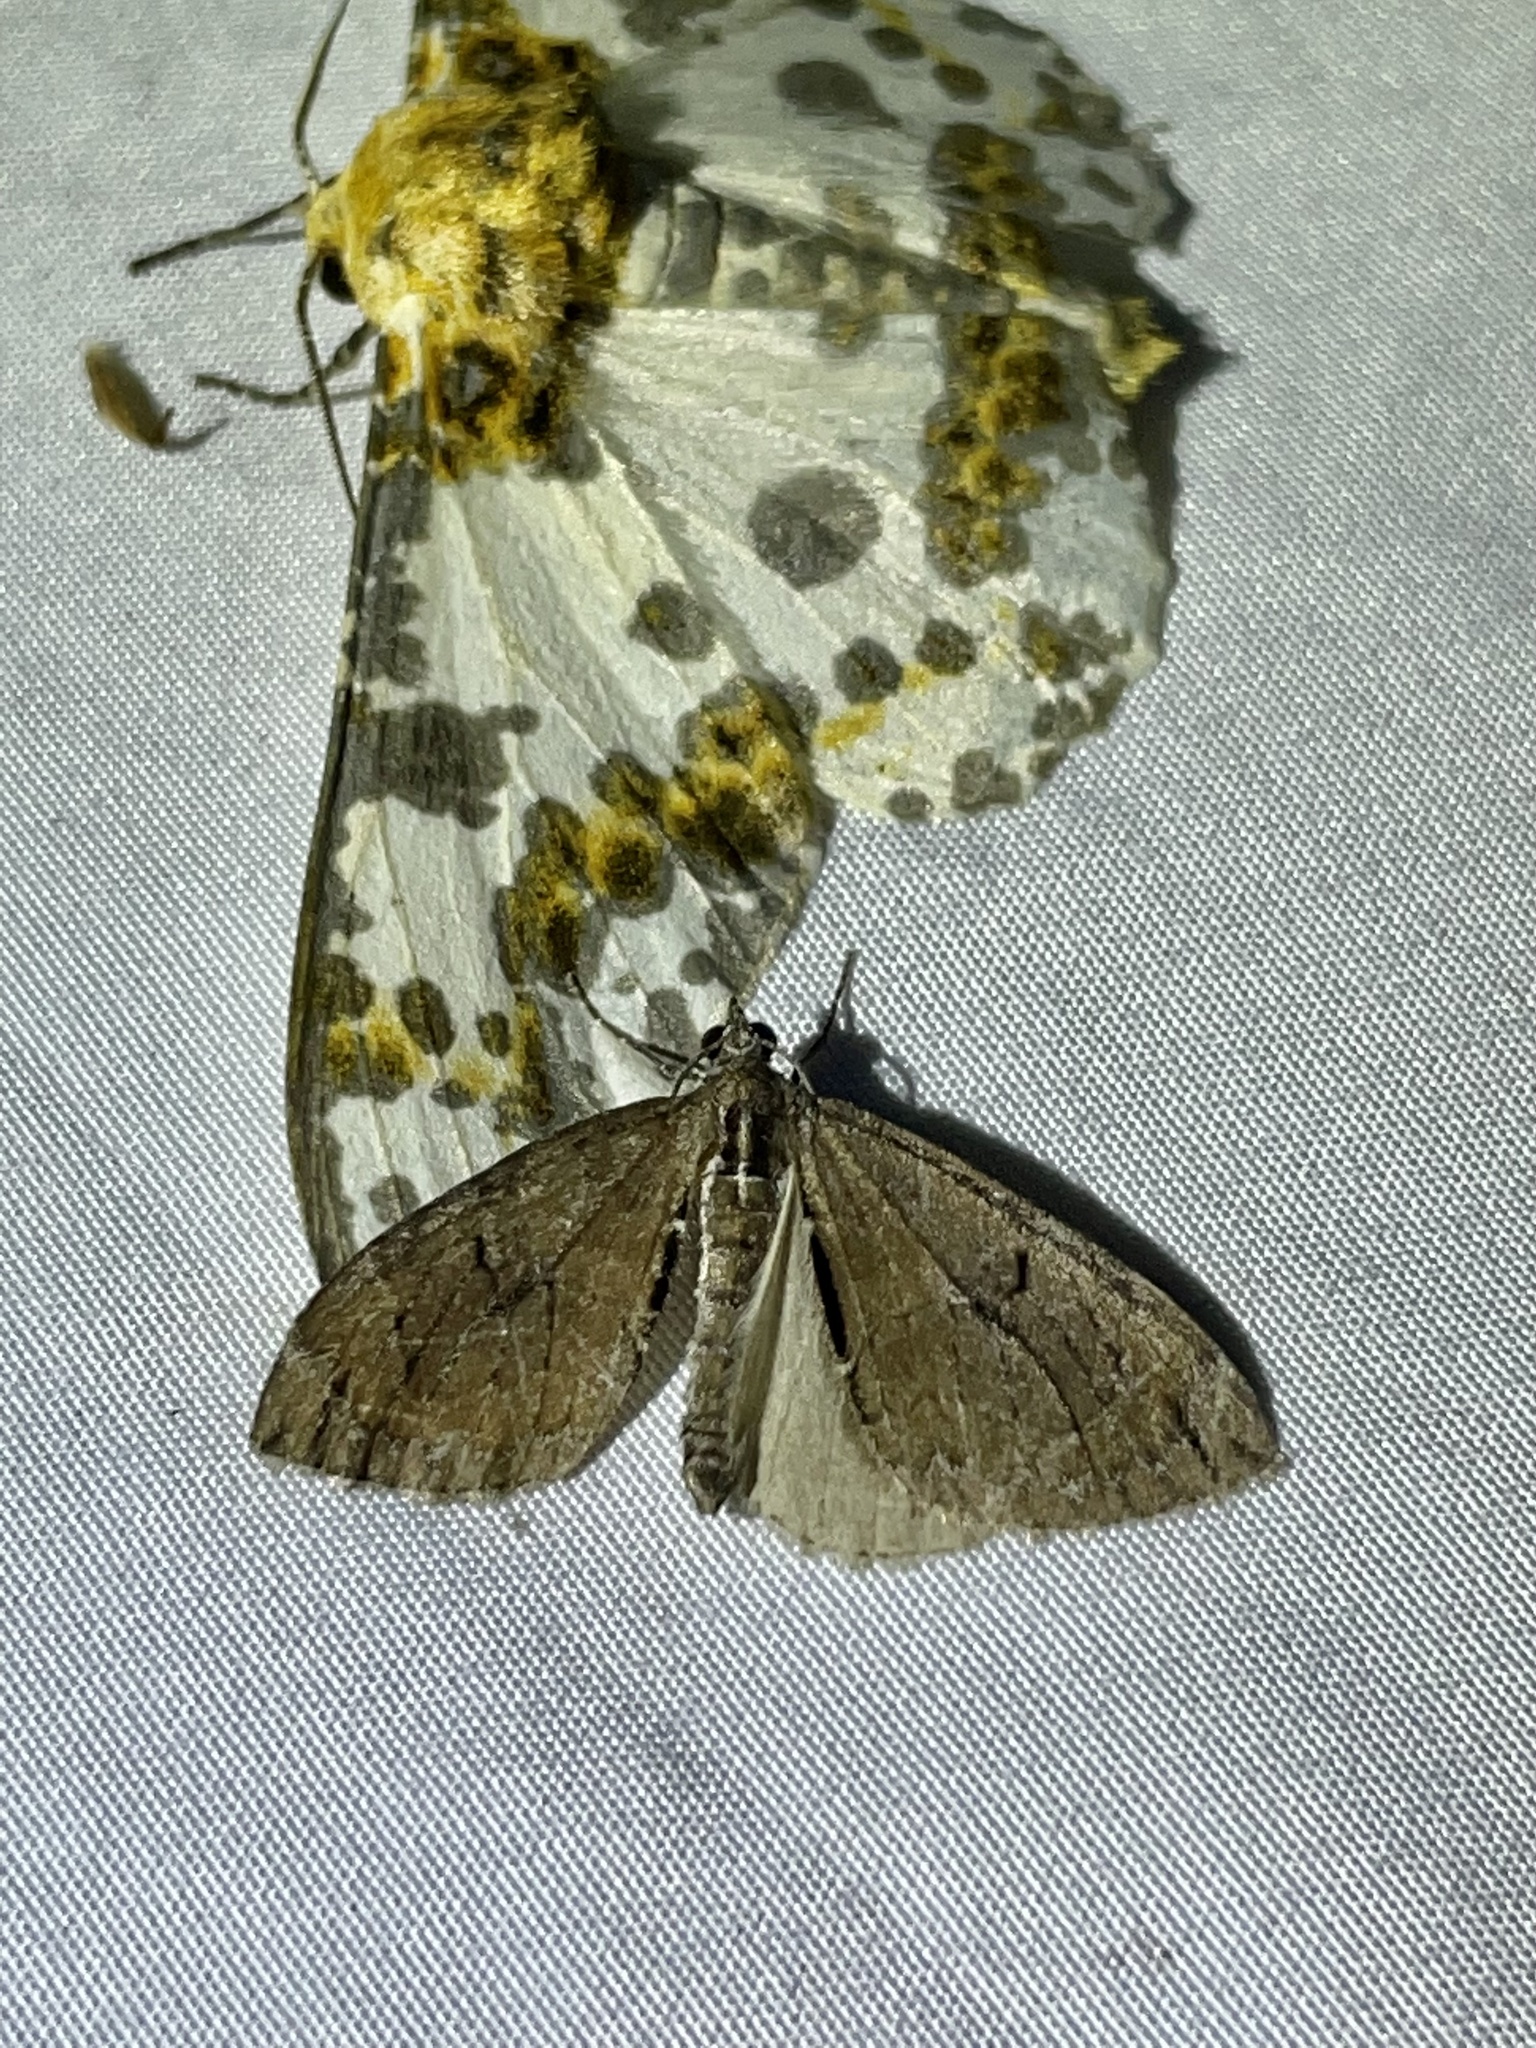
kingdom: Animalia
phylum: Arthropoda
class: Insecta
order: Lepidoptera
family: Geometridae
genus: Heterothera
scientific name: Heterothera postalbida
